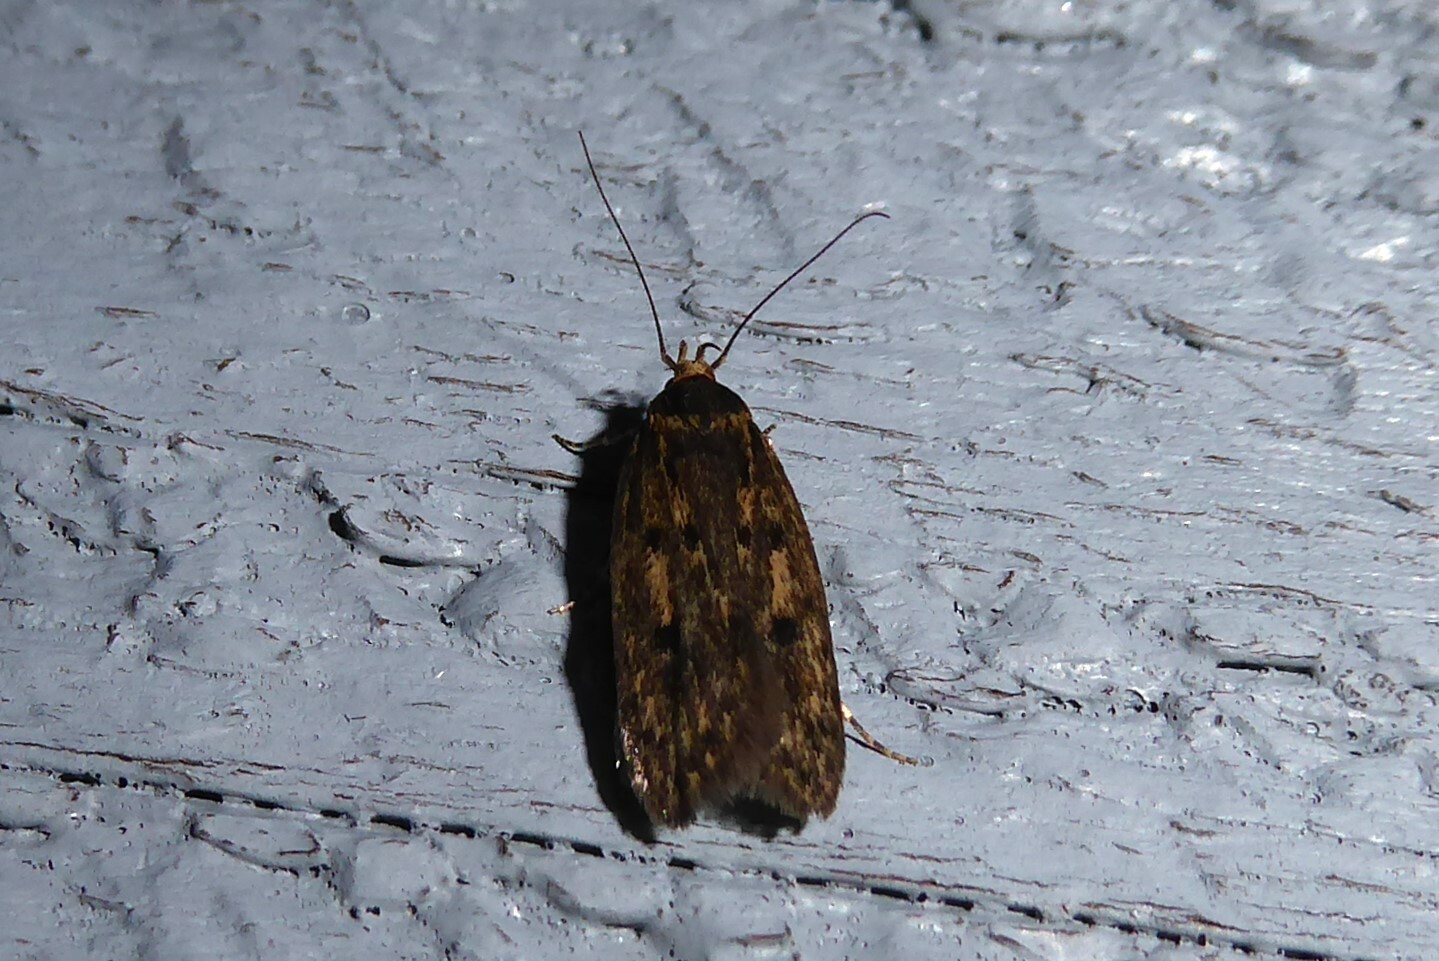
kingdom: Animalia
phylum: Arthropoda
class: Insecta
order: Lepidoptera
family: Oecophoridae
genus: Hofmannophila
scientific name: Hofmannophila pseudospretella
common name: Brown house moth
